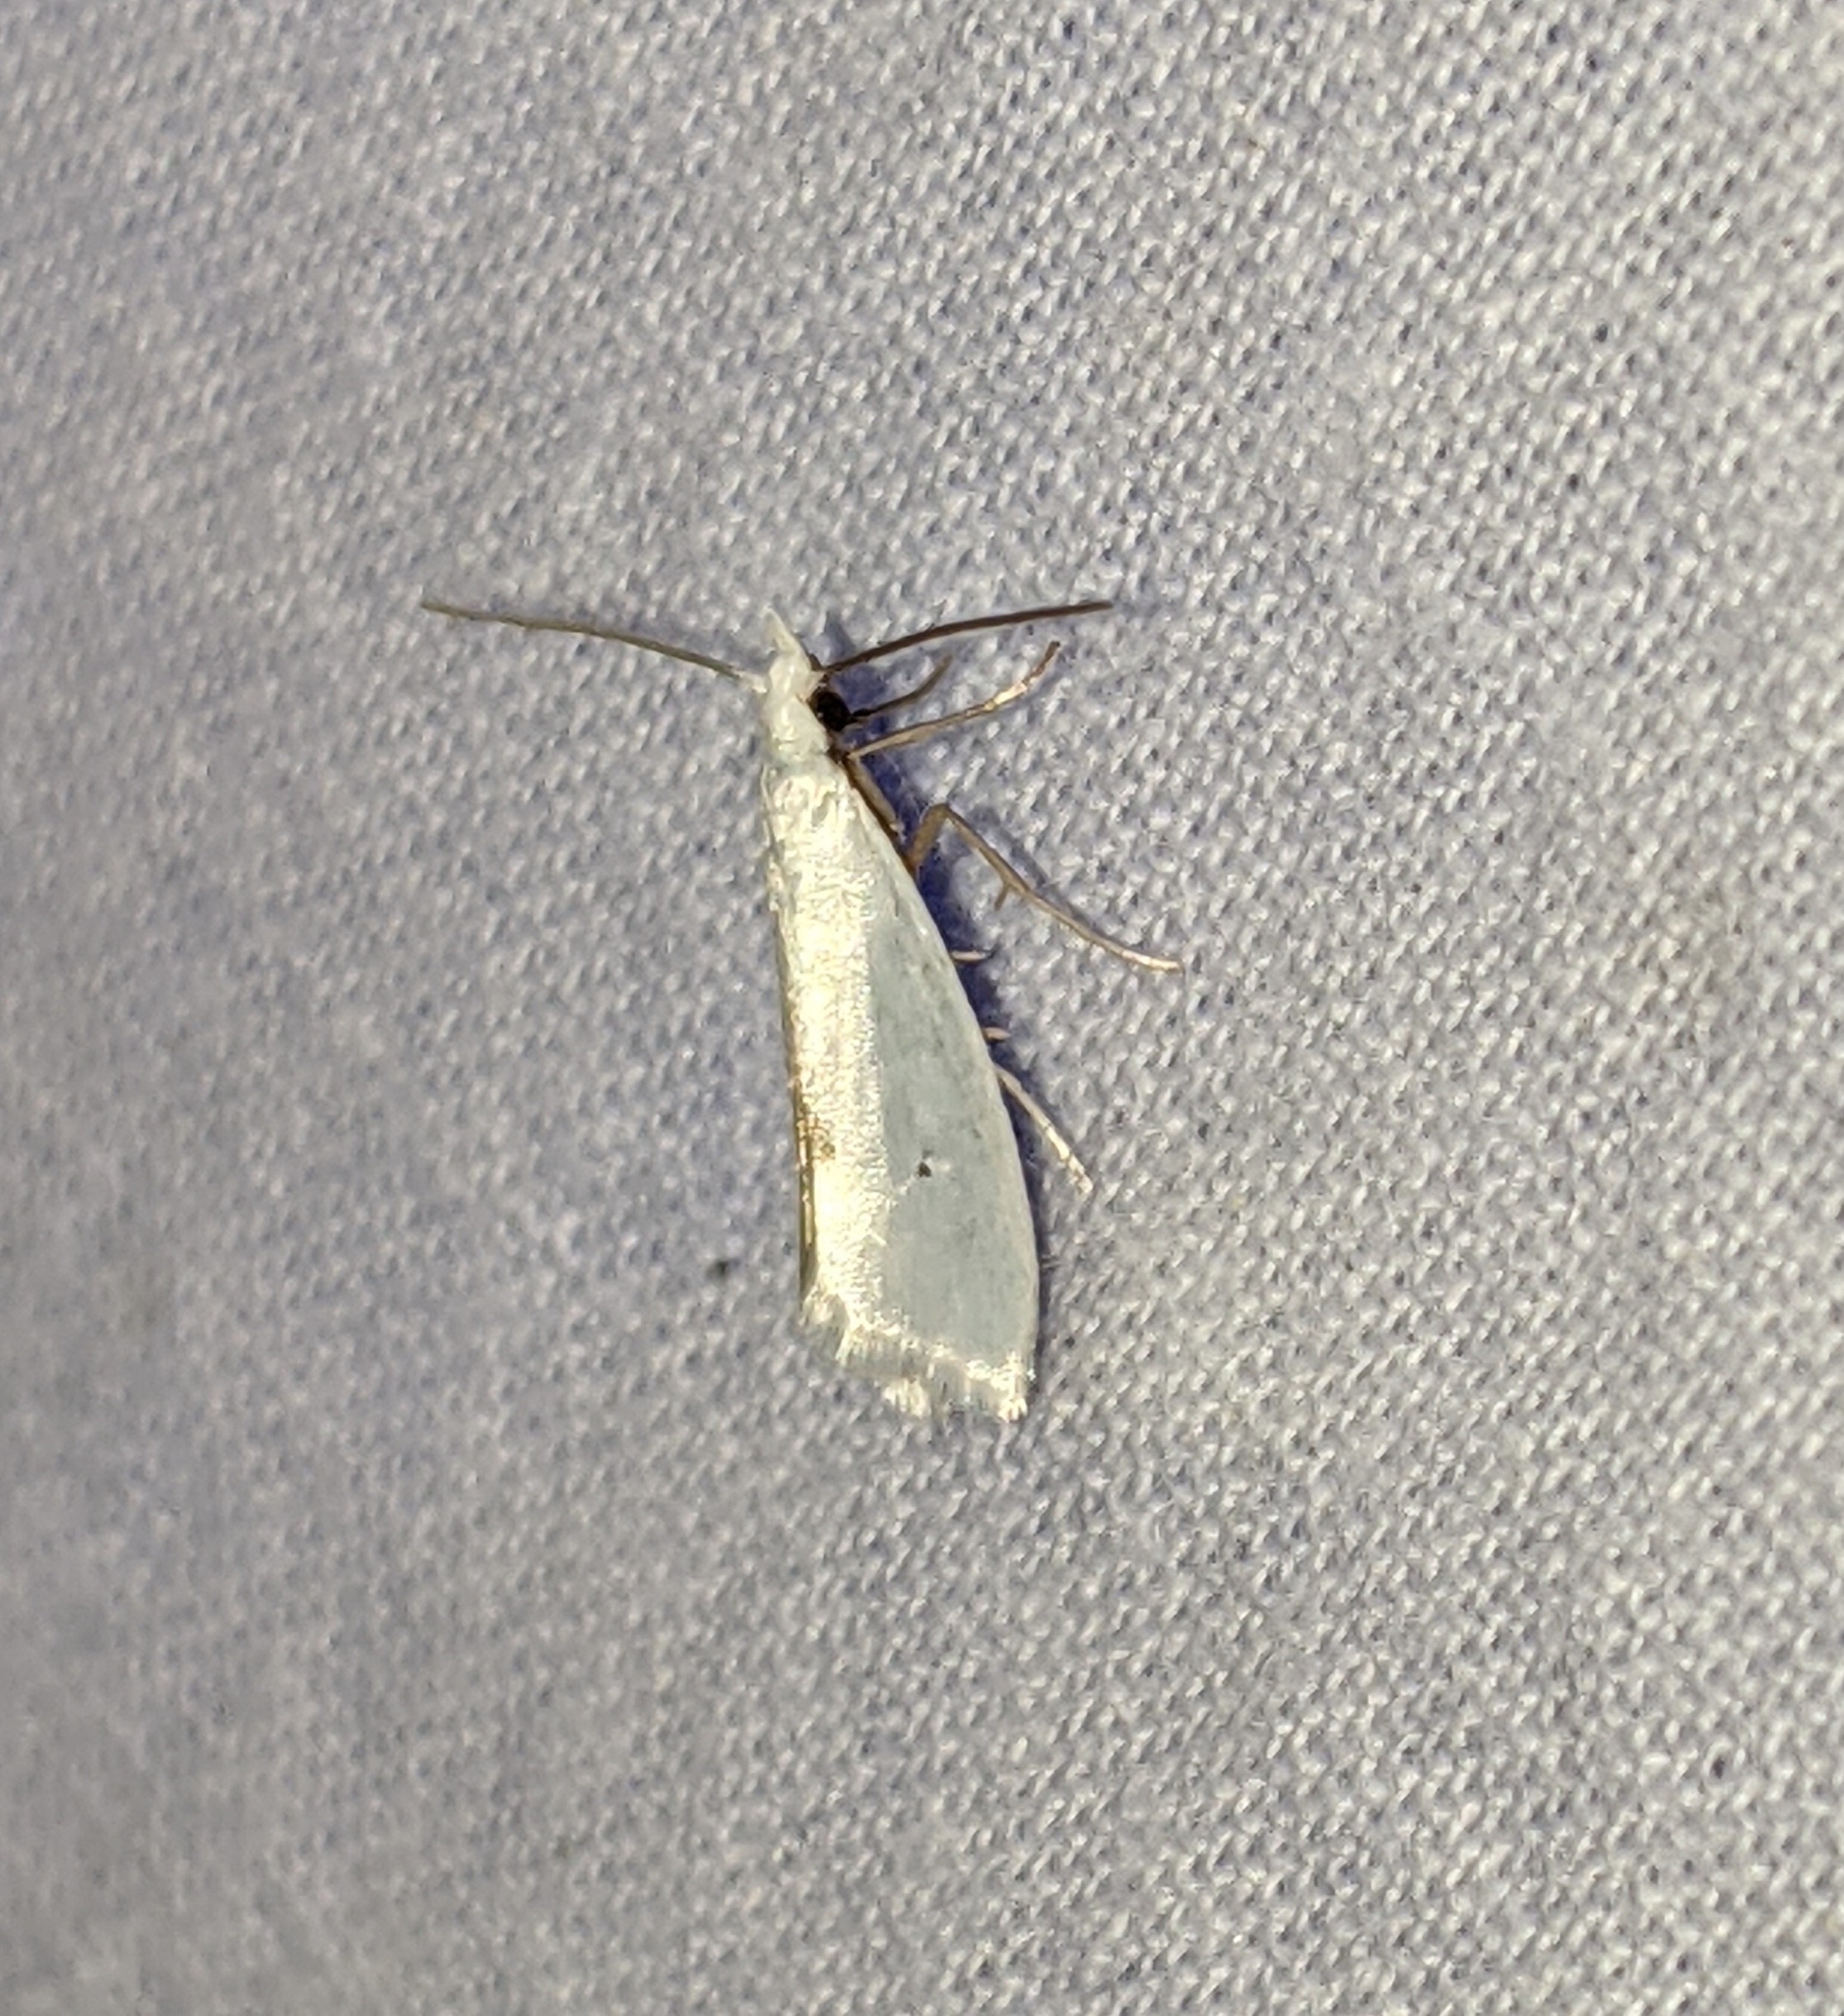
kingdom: Animalia
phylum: Arthropoda
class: Insecta
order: Lepidoptera
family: Yponomeutidae
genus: Eucalantica
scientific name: Eucalantica polita
